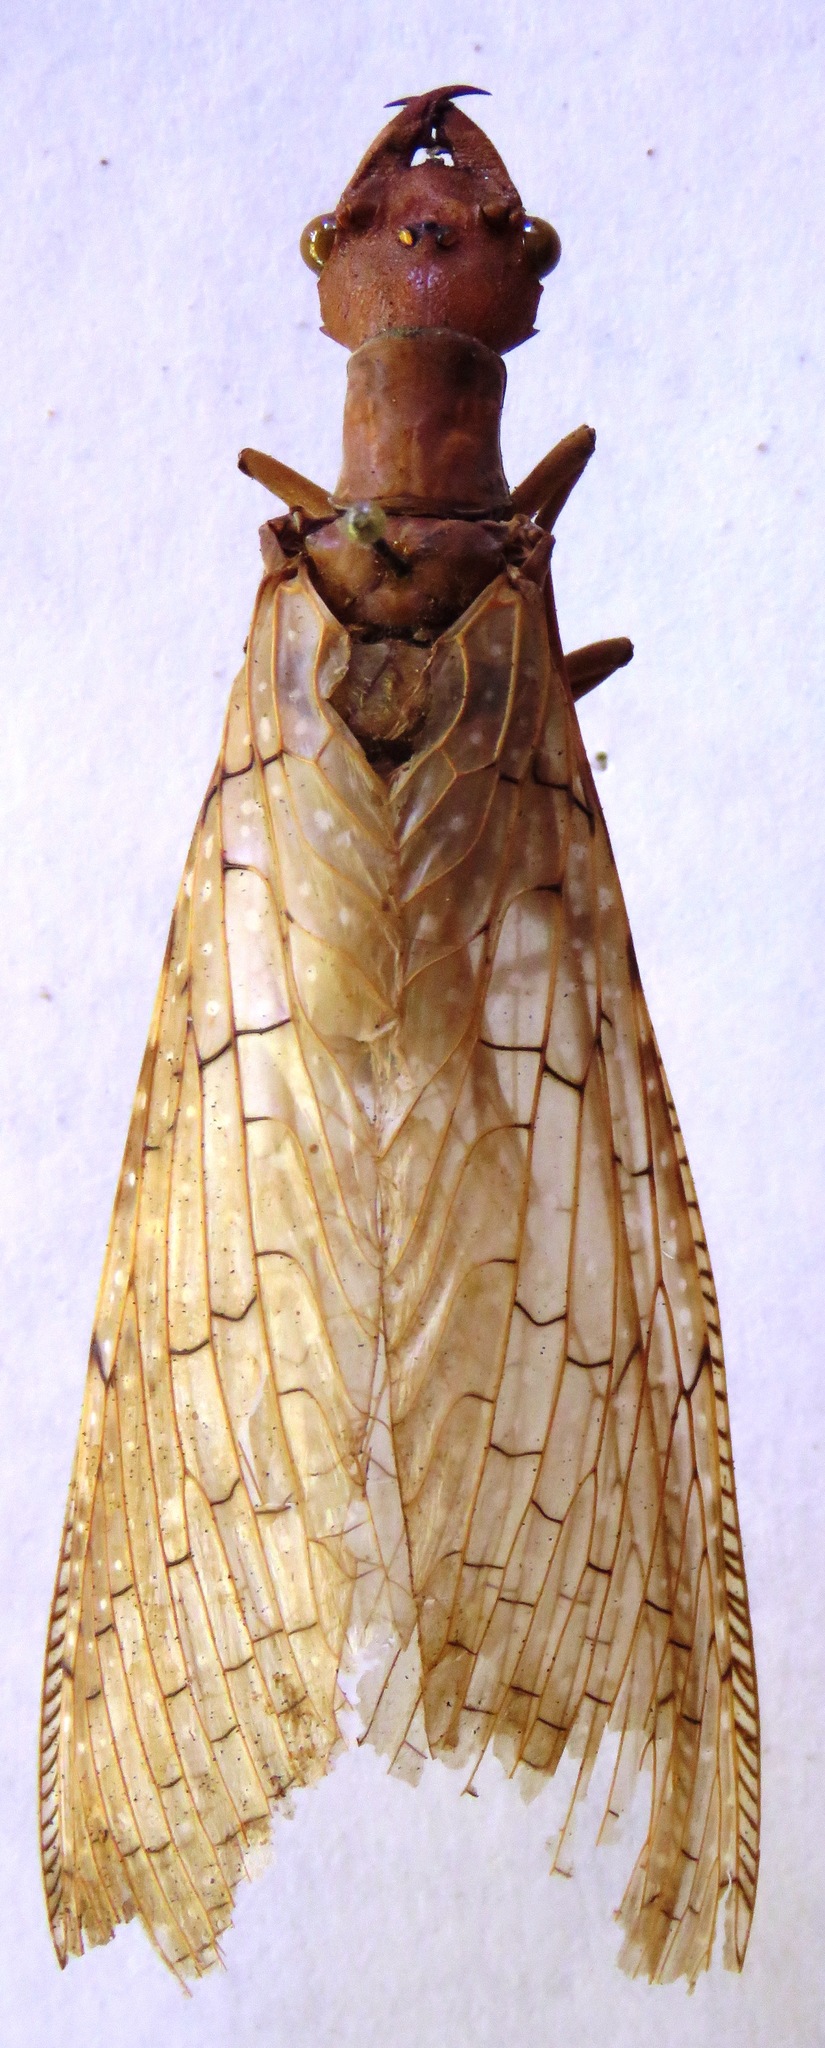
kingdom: Animalia
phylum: Arthropoda
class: Insecta
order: Megaloptera
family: Corydalidae
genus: Corydalus
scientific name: Corydalus luteus
